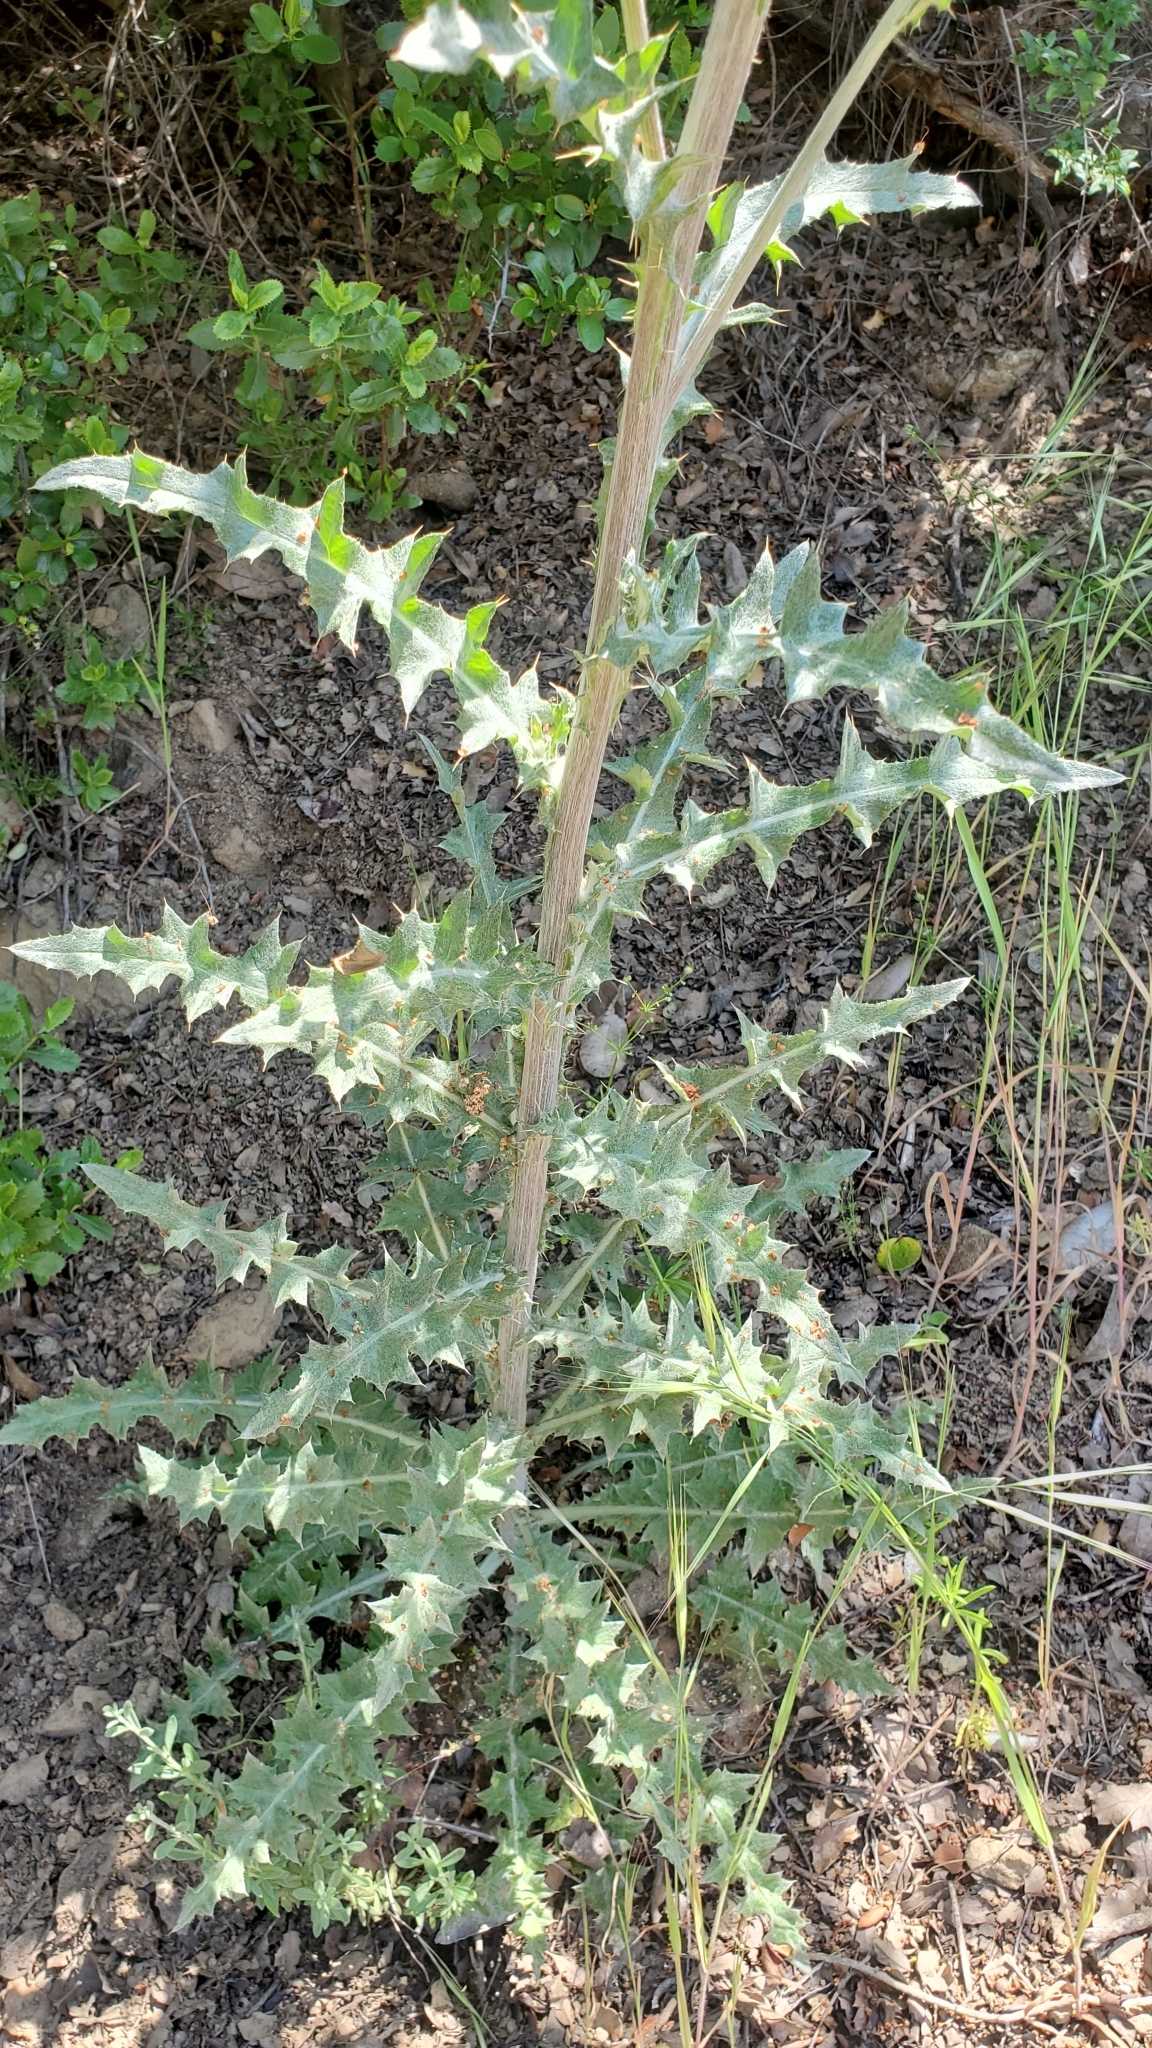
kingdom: Plantae
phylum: Tracheophyta
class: Magnoliopsida
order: Asterales
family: Asteraceae
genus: Cirsium
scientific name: Cirsium occidentale
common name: Western thistle
